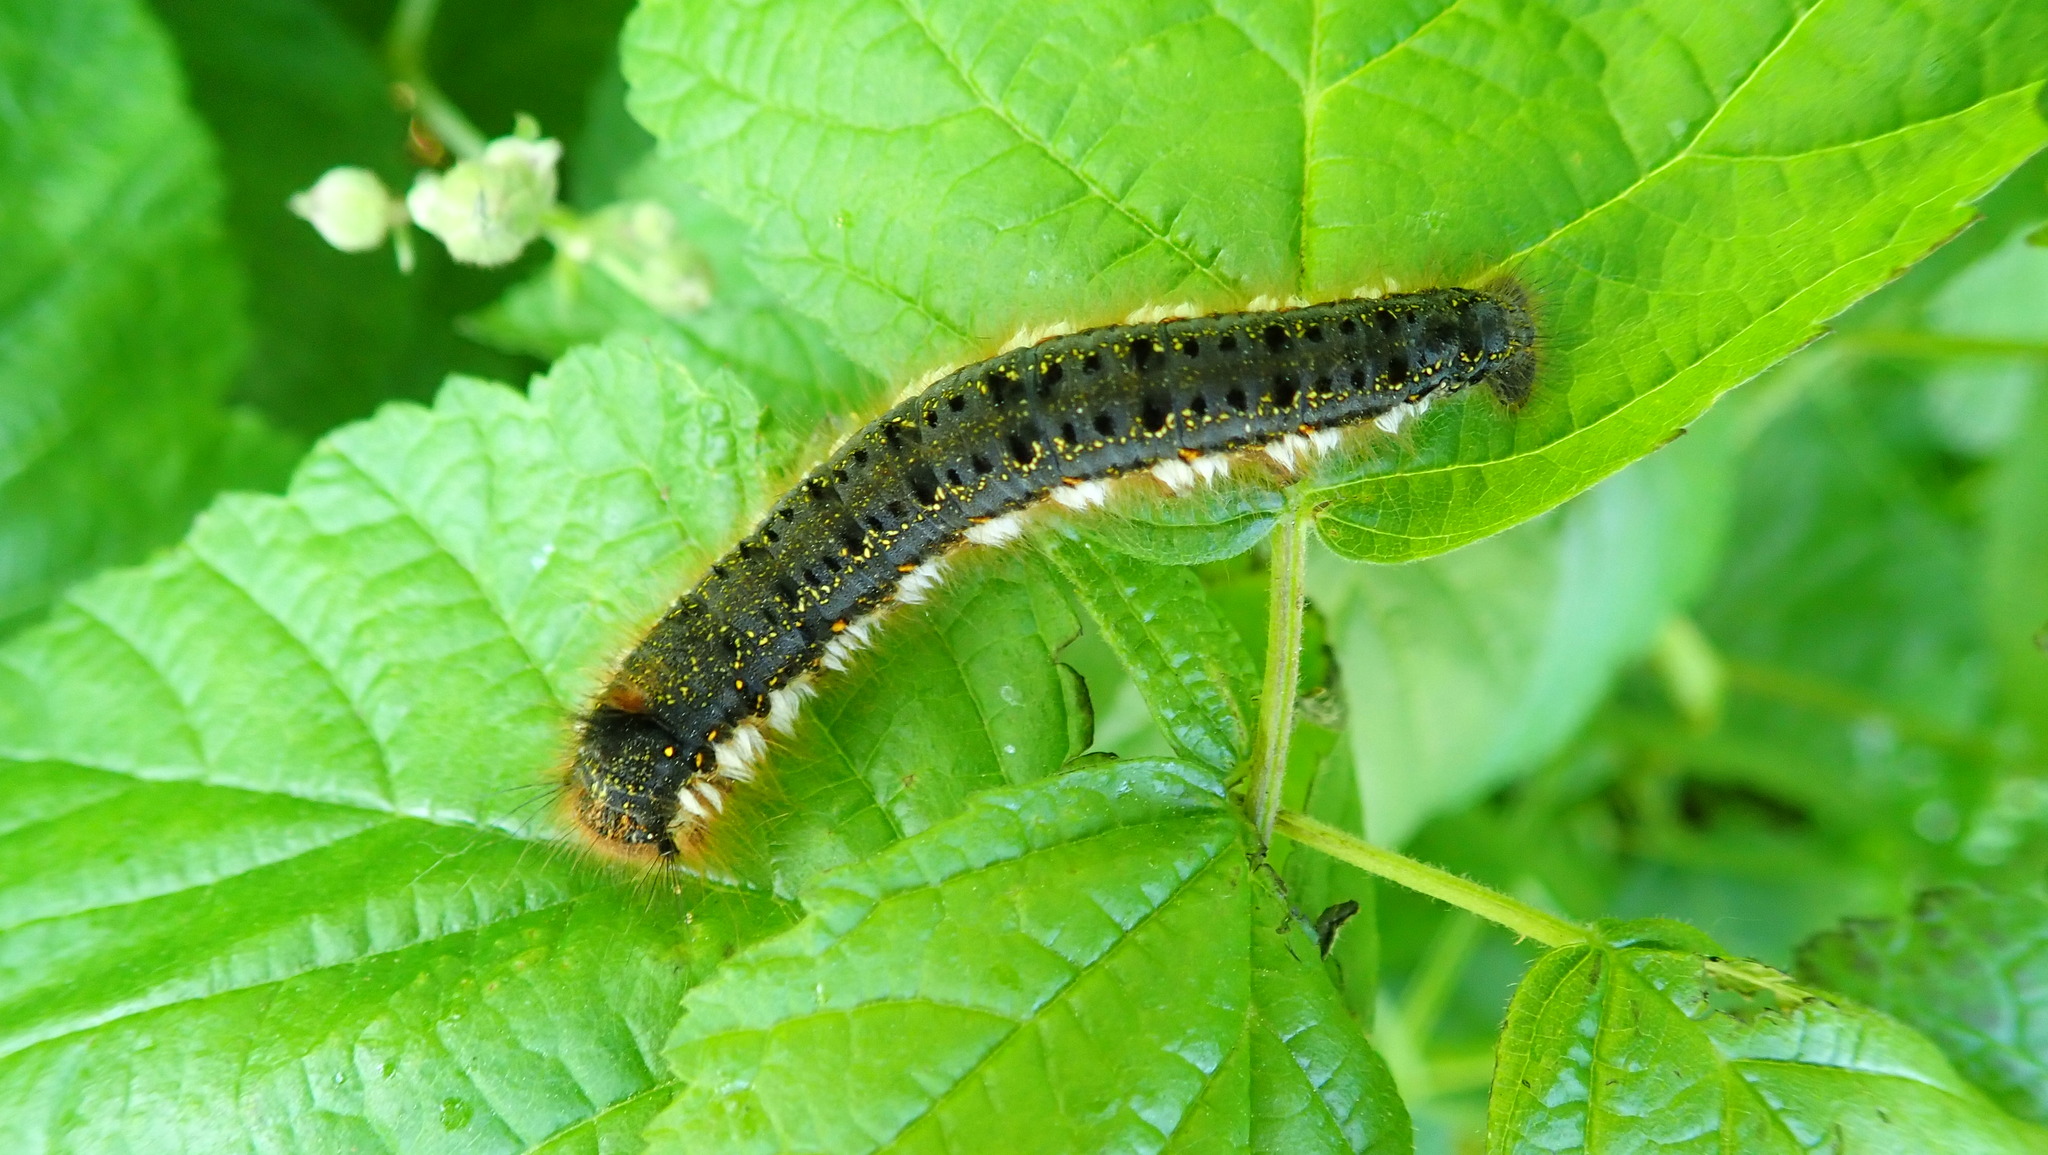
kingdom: Animalia
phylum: Arthropoda
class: Insecta
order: Lepidoptera
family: Lasiocampidae
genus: Euthrix
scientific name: Euthrix potatoria
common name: Drinker
